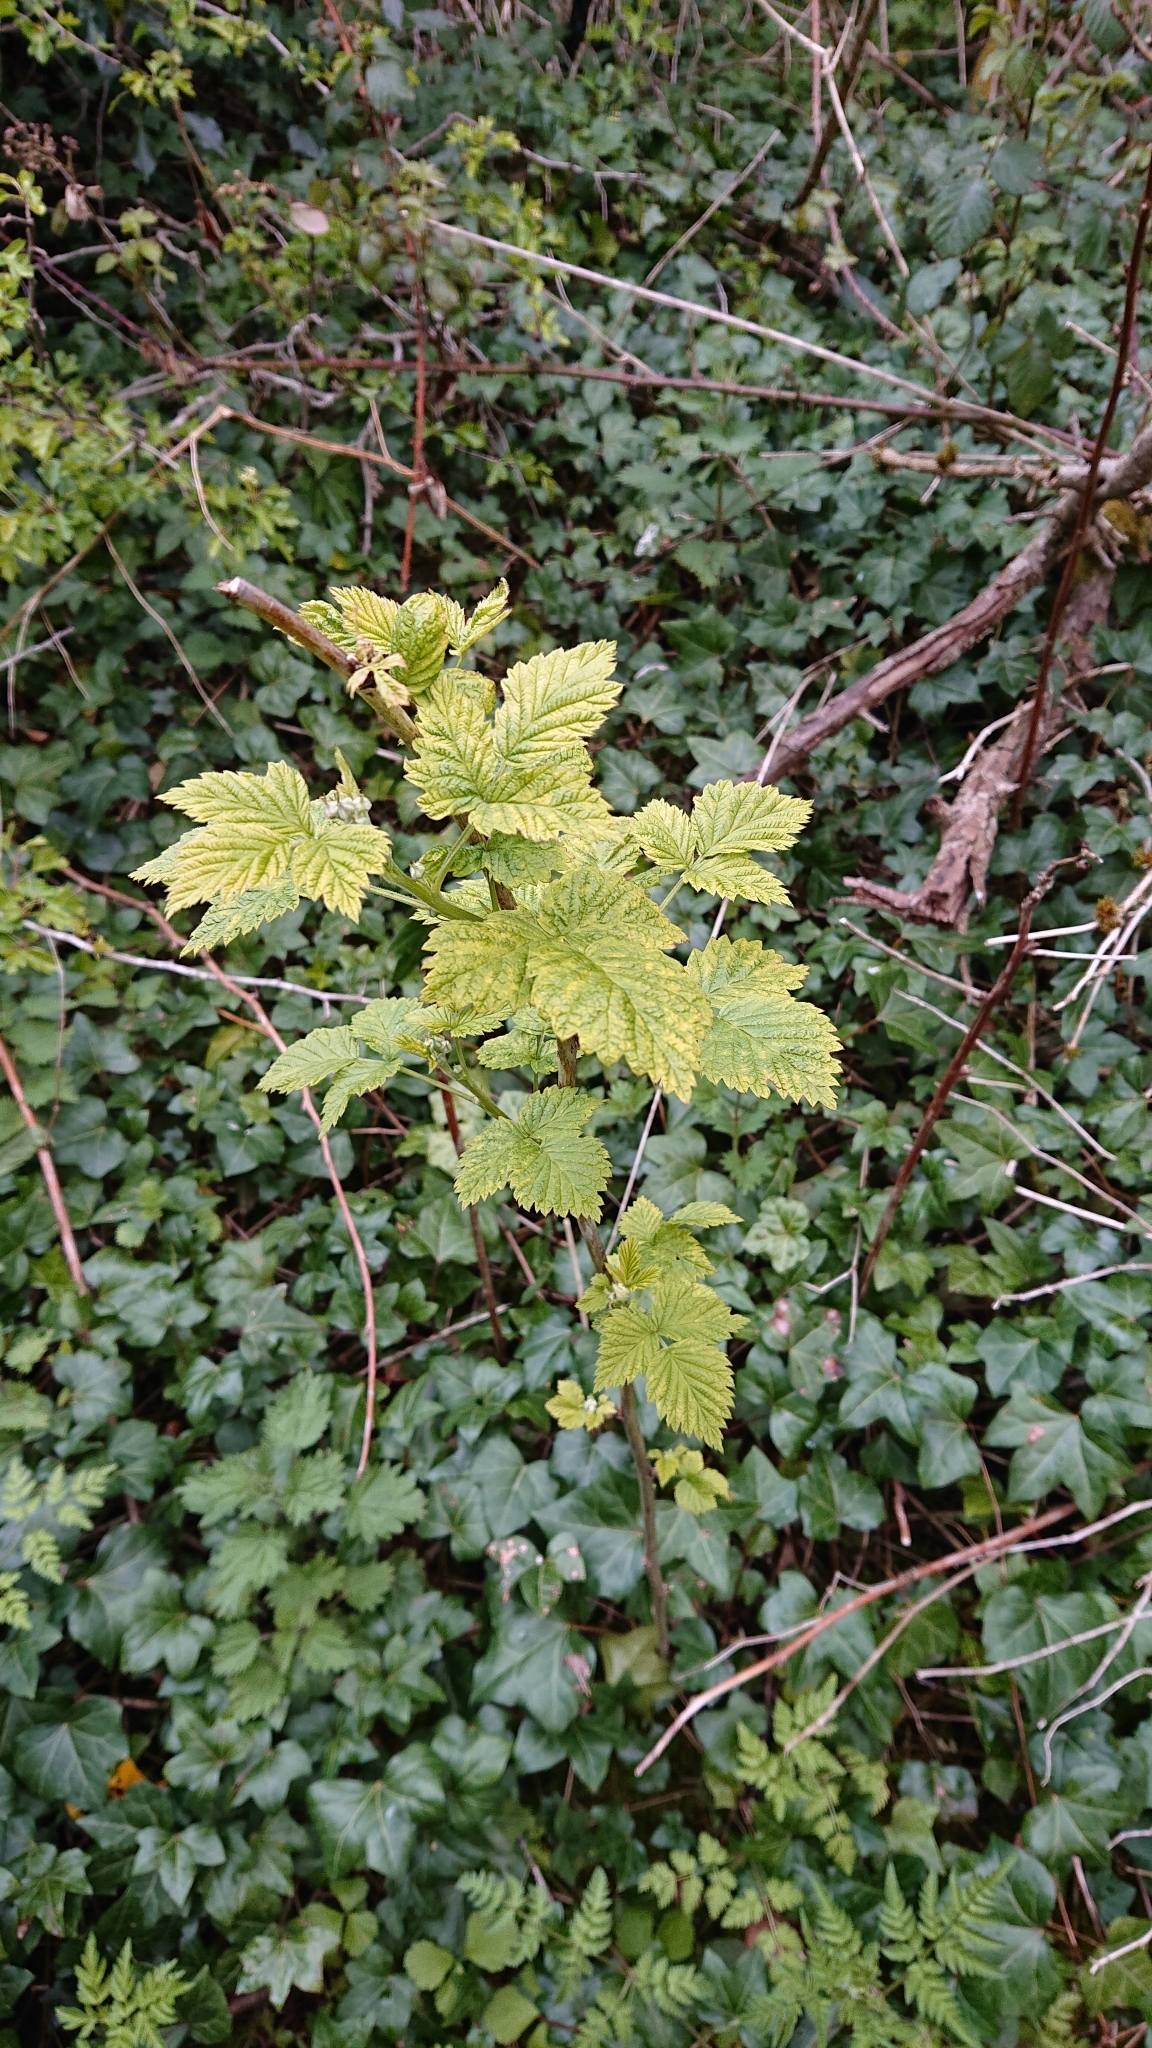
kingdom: Plantae
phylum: Tracheophyta
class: Magnoliopsida
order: Rosales
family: Rosaceae
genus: Rubus
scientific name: Rubus idaeus
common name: Raspberry
